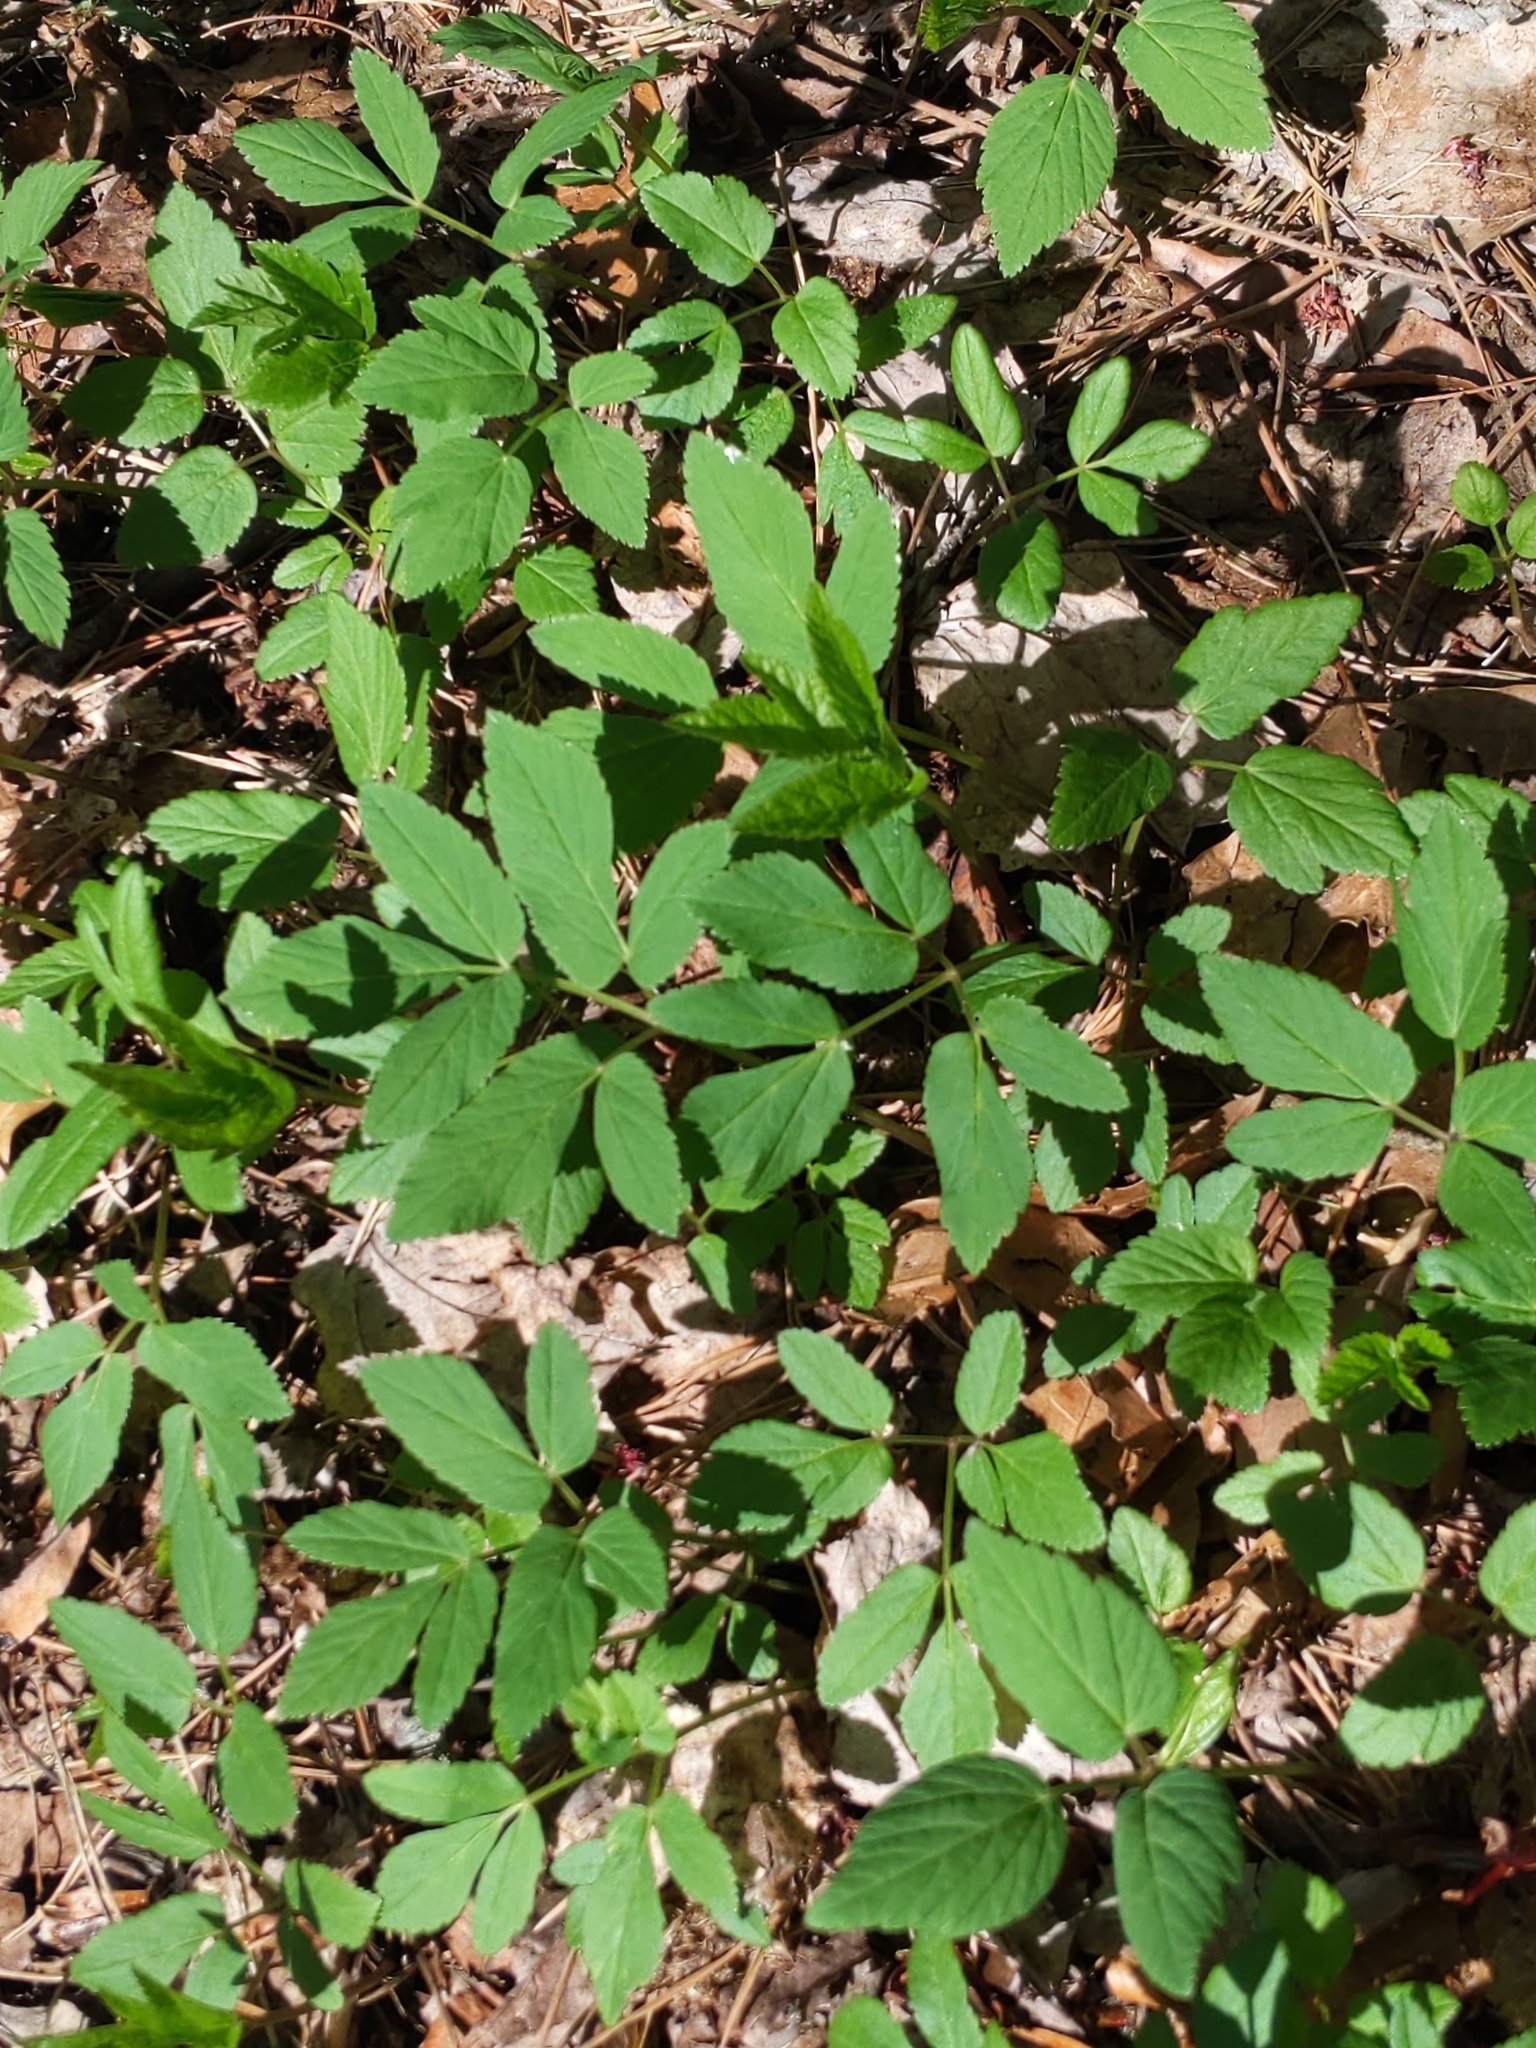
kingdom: Plantae
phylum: Tracheophyta
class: Magnoliopsida
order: Apiales
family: Apiaceae
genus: Aegopodium
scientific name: Aegopodium podagraria
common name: Ground-elder
